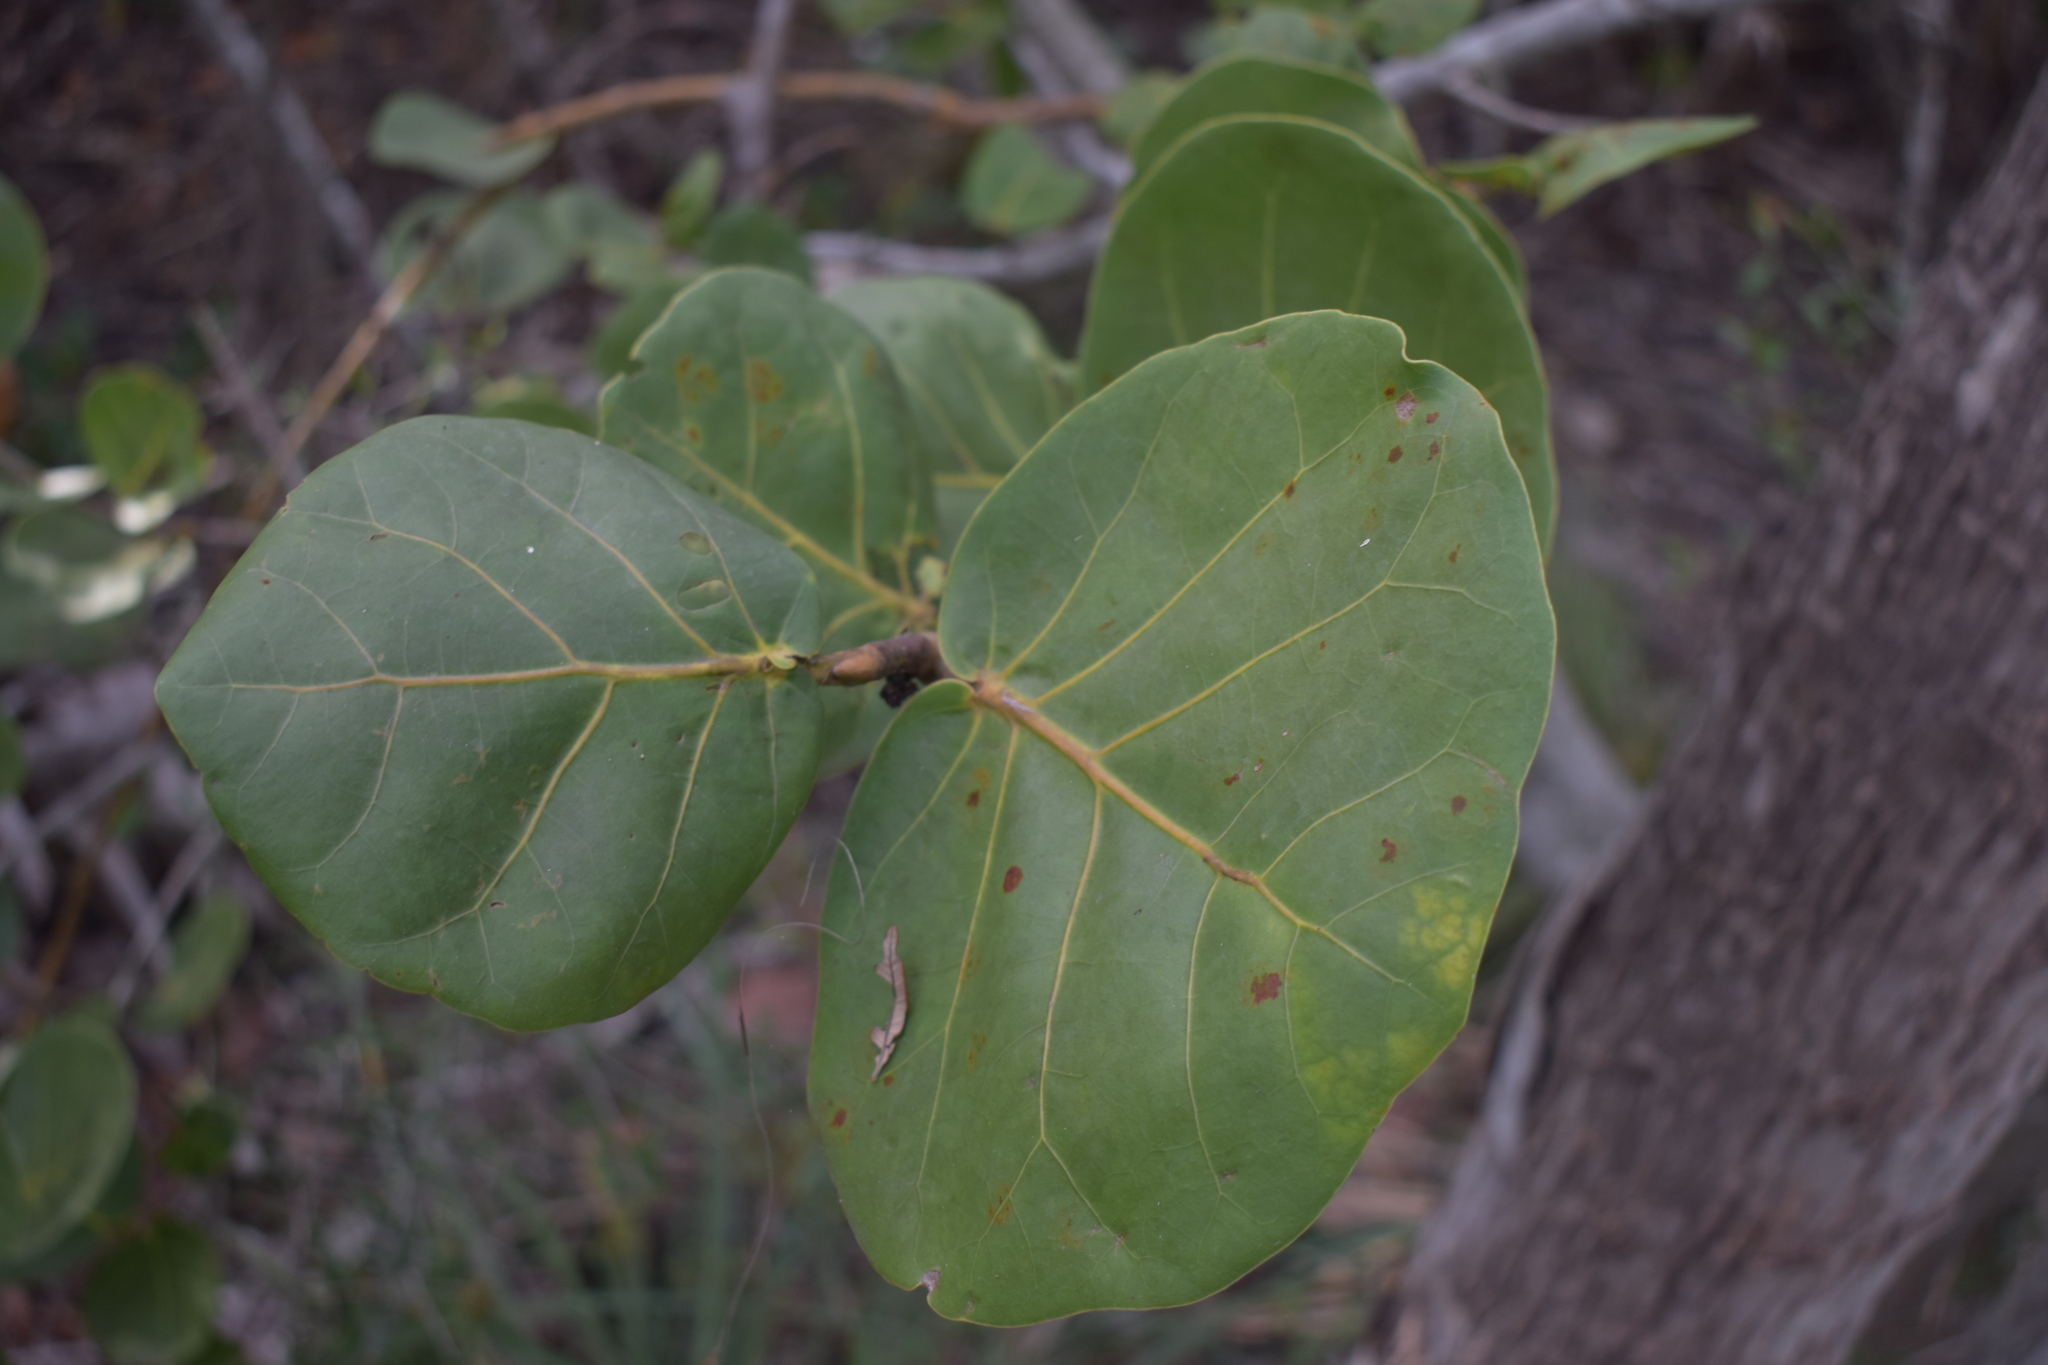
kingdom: Plantae
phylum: Tracheophyta
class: Magnoliopsida
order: Caryophyllales
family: Polygonaceae
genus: Coccoloba
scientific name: Coccoloba uvifera
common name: Seagrape
